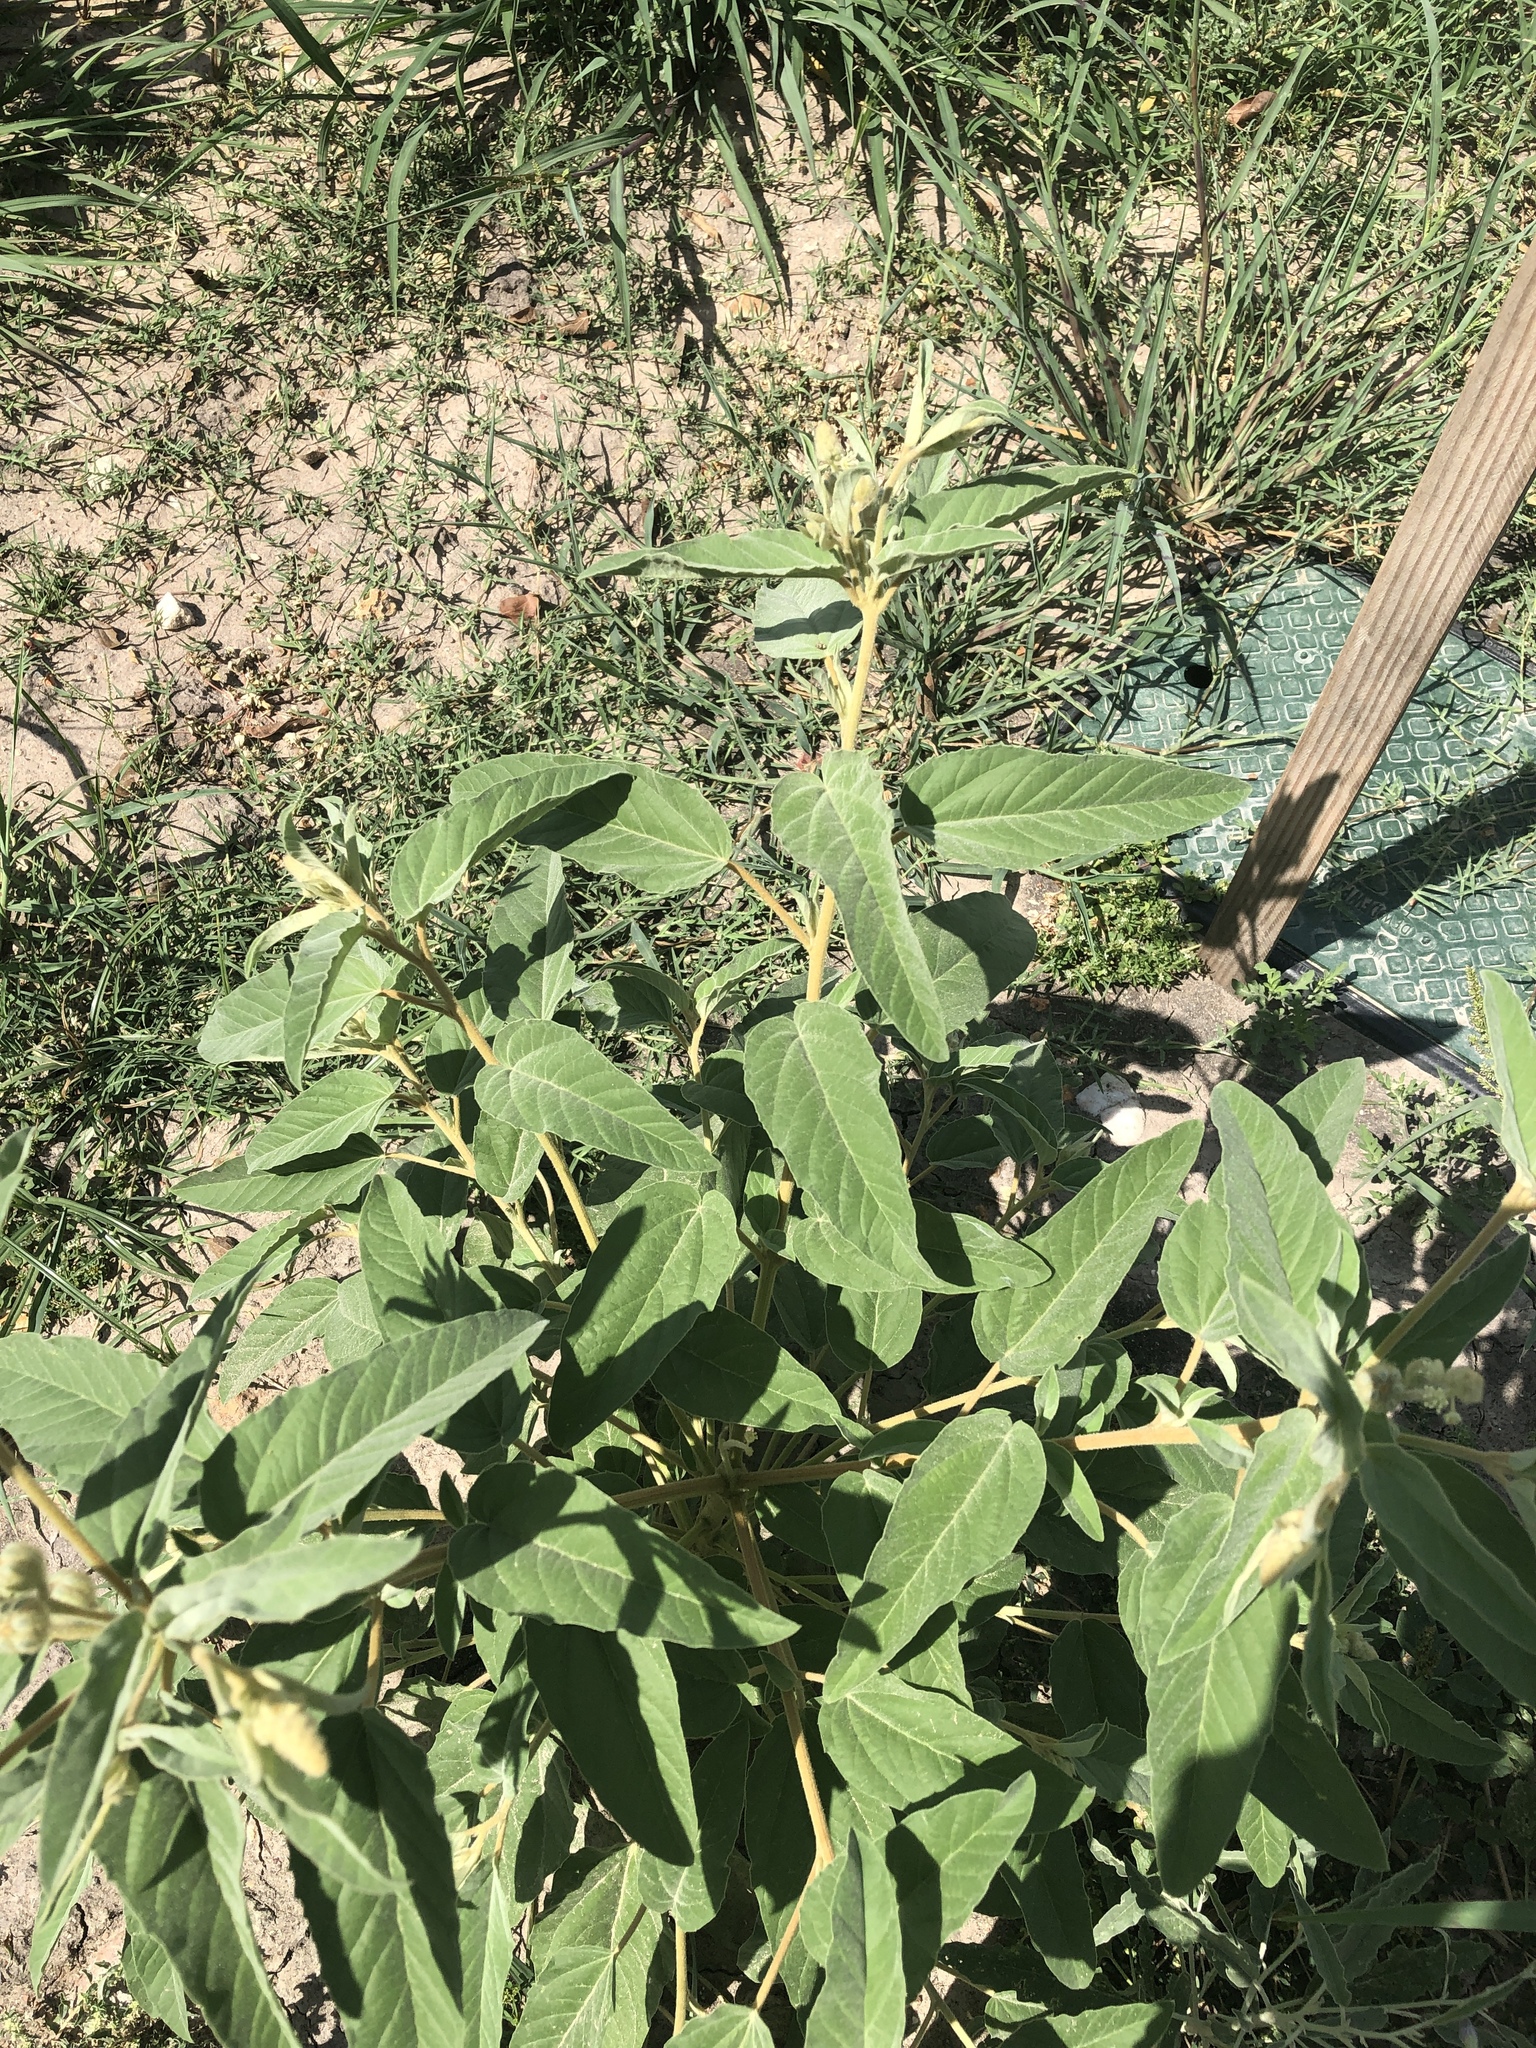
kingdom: Plantae
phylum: Tracheophyta
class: Magnoliopsida
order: Malpighiales
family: Euphorbiaceae
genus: Croton
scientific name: Croton lindheimeri
